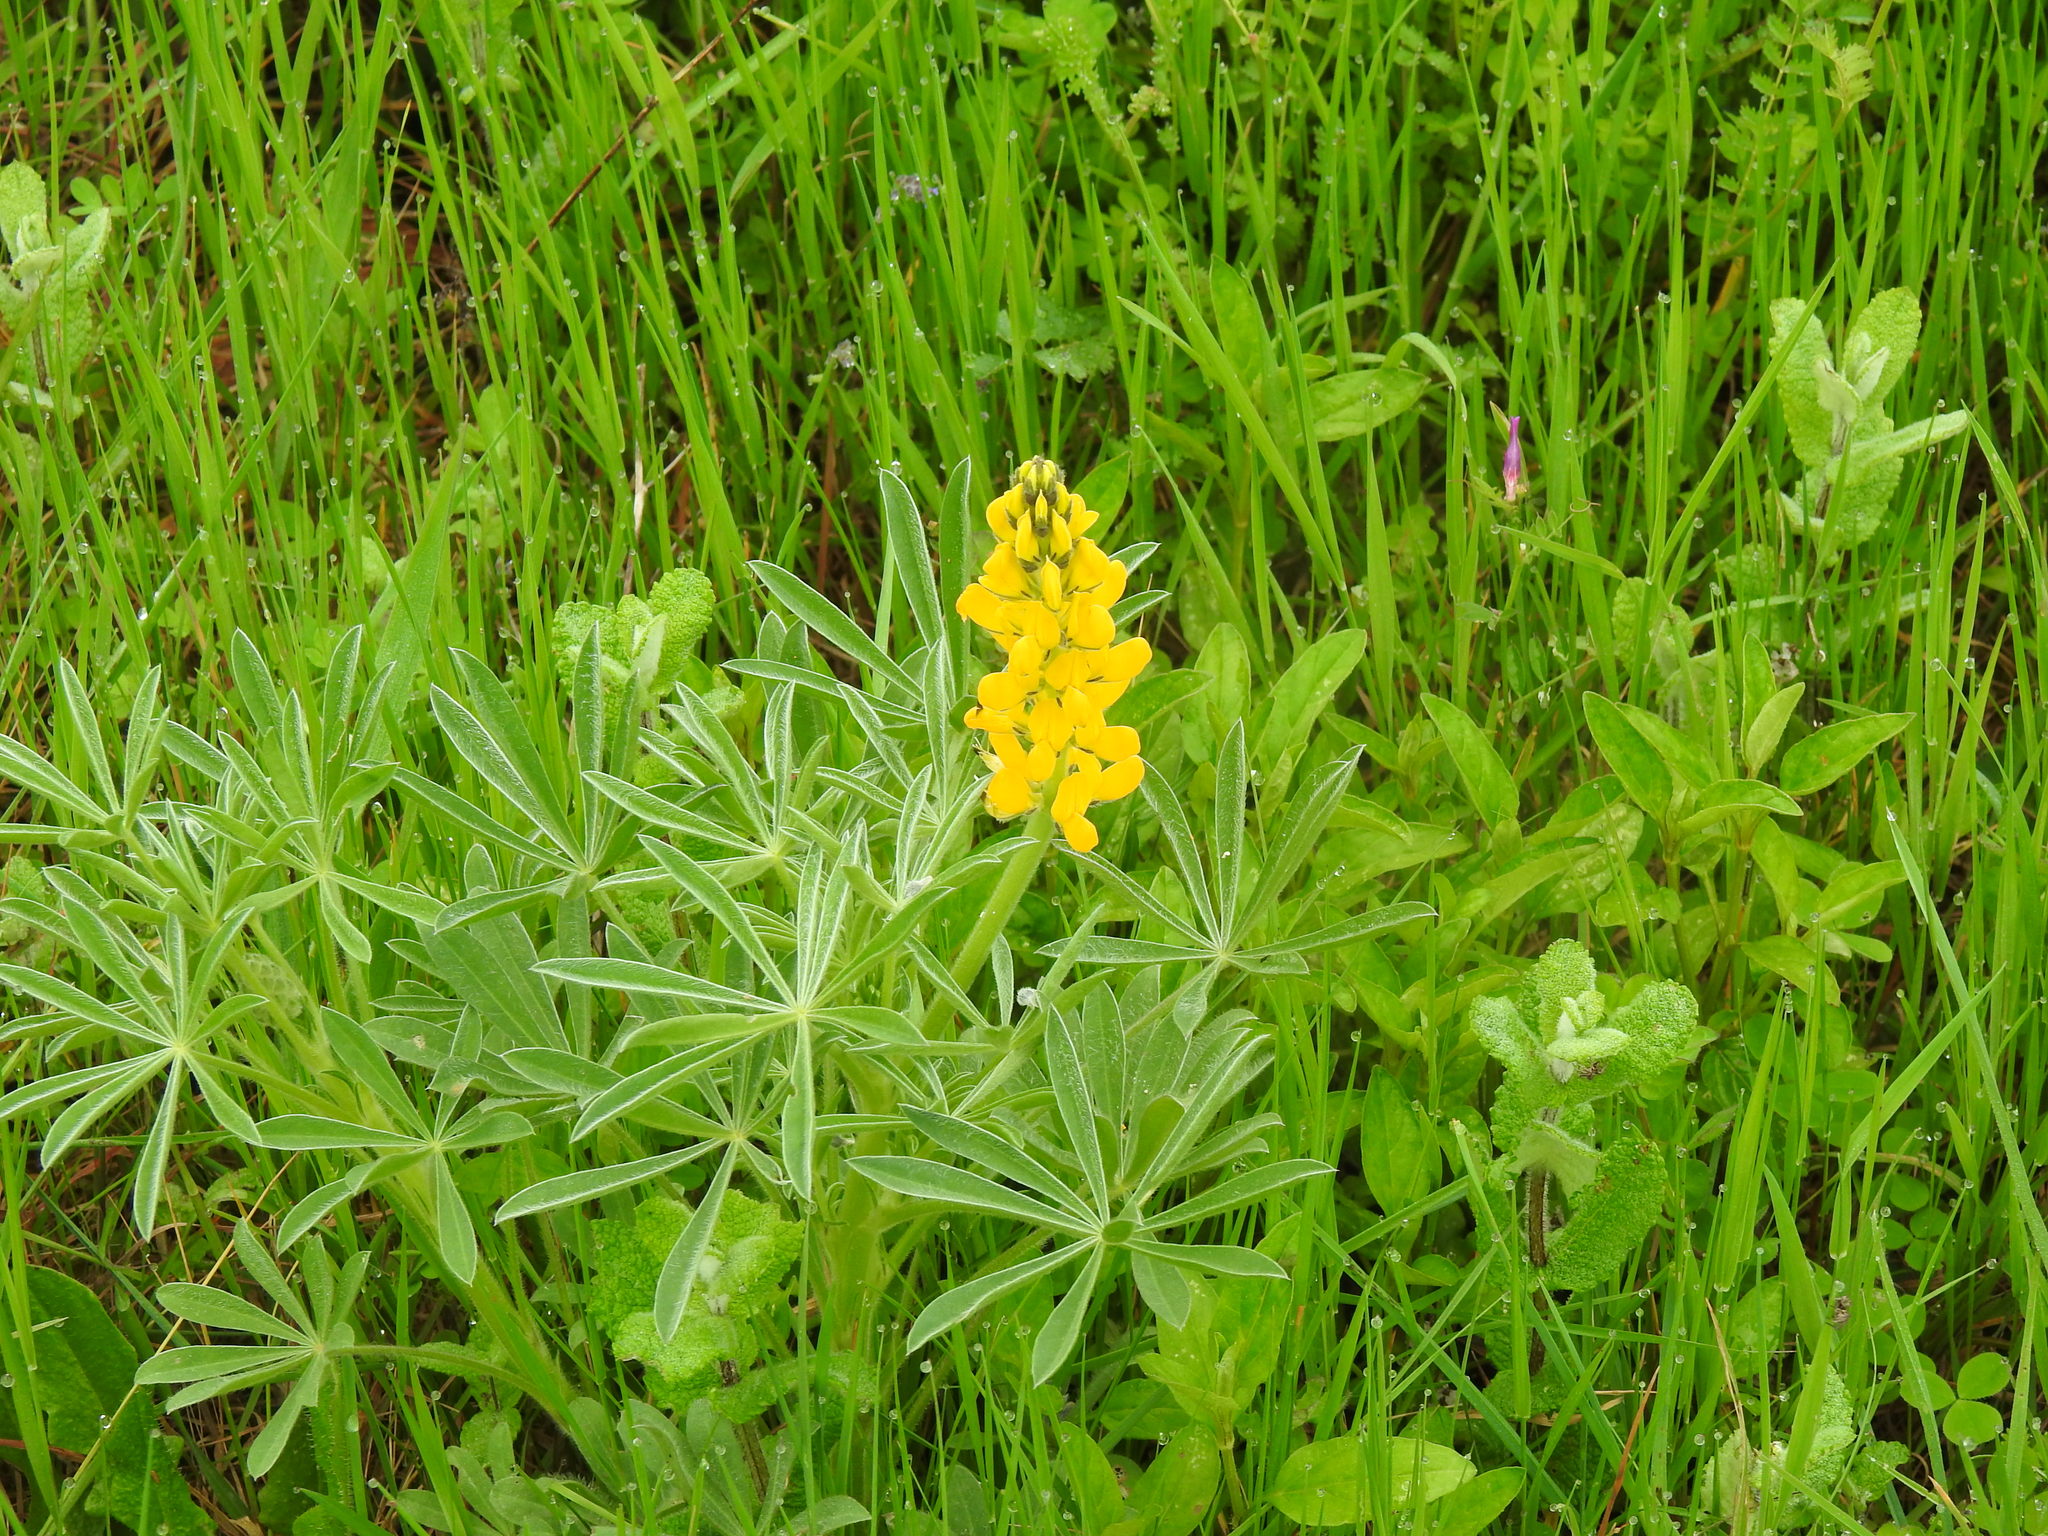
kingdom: Plantae
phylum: Tracheophyta
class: Magnoliopsida
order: Fabales
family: Fabaceae
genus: Lupinus
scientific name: Lupinus luteus
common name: European yellow lupine
